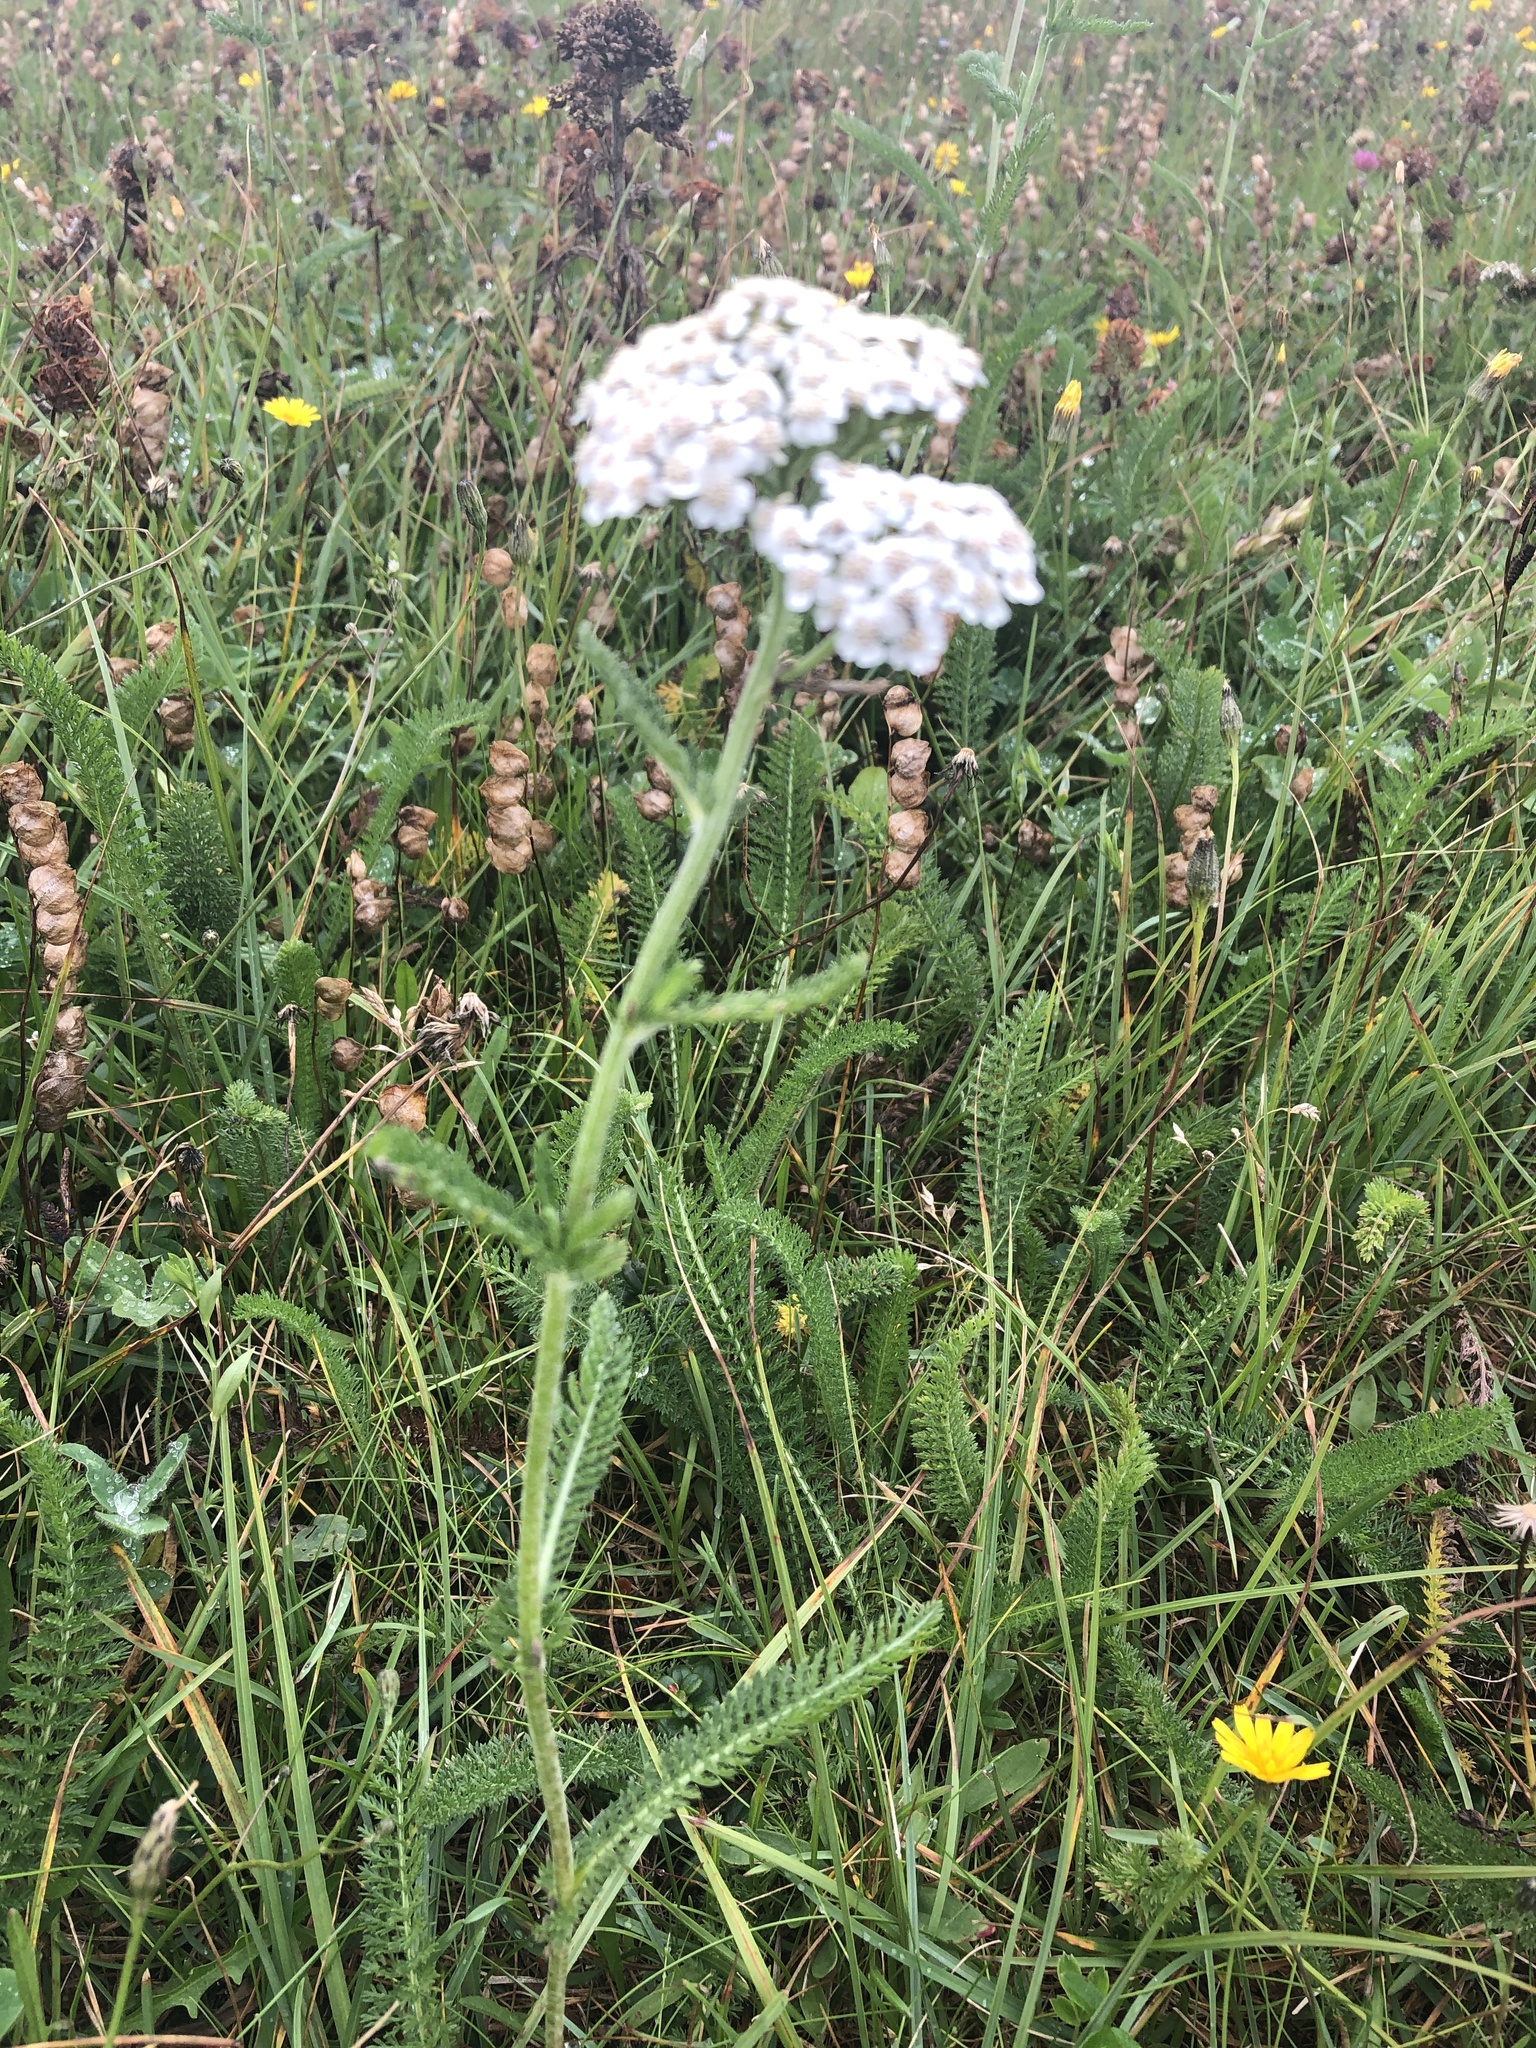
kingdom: Plantae
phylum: Tracheophyta
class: Magnoliopsida
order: Asterales
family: Asteraceae
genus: Achillea
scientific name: Achillea millefolium
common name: Yarrow
